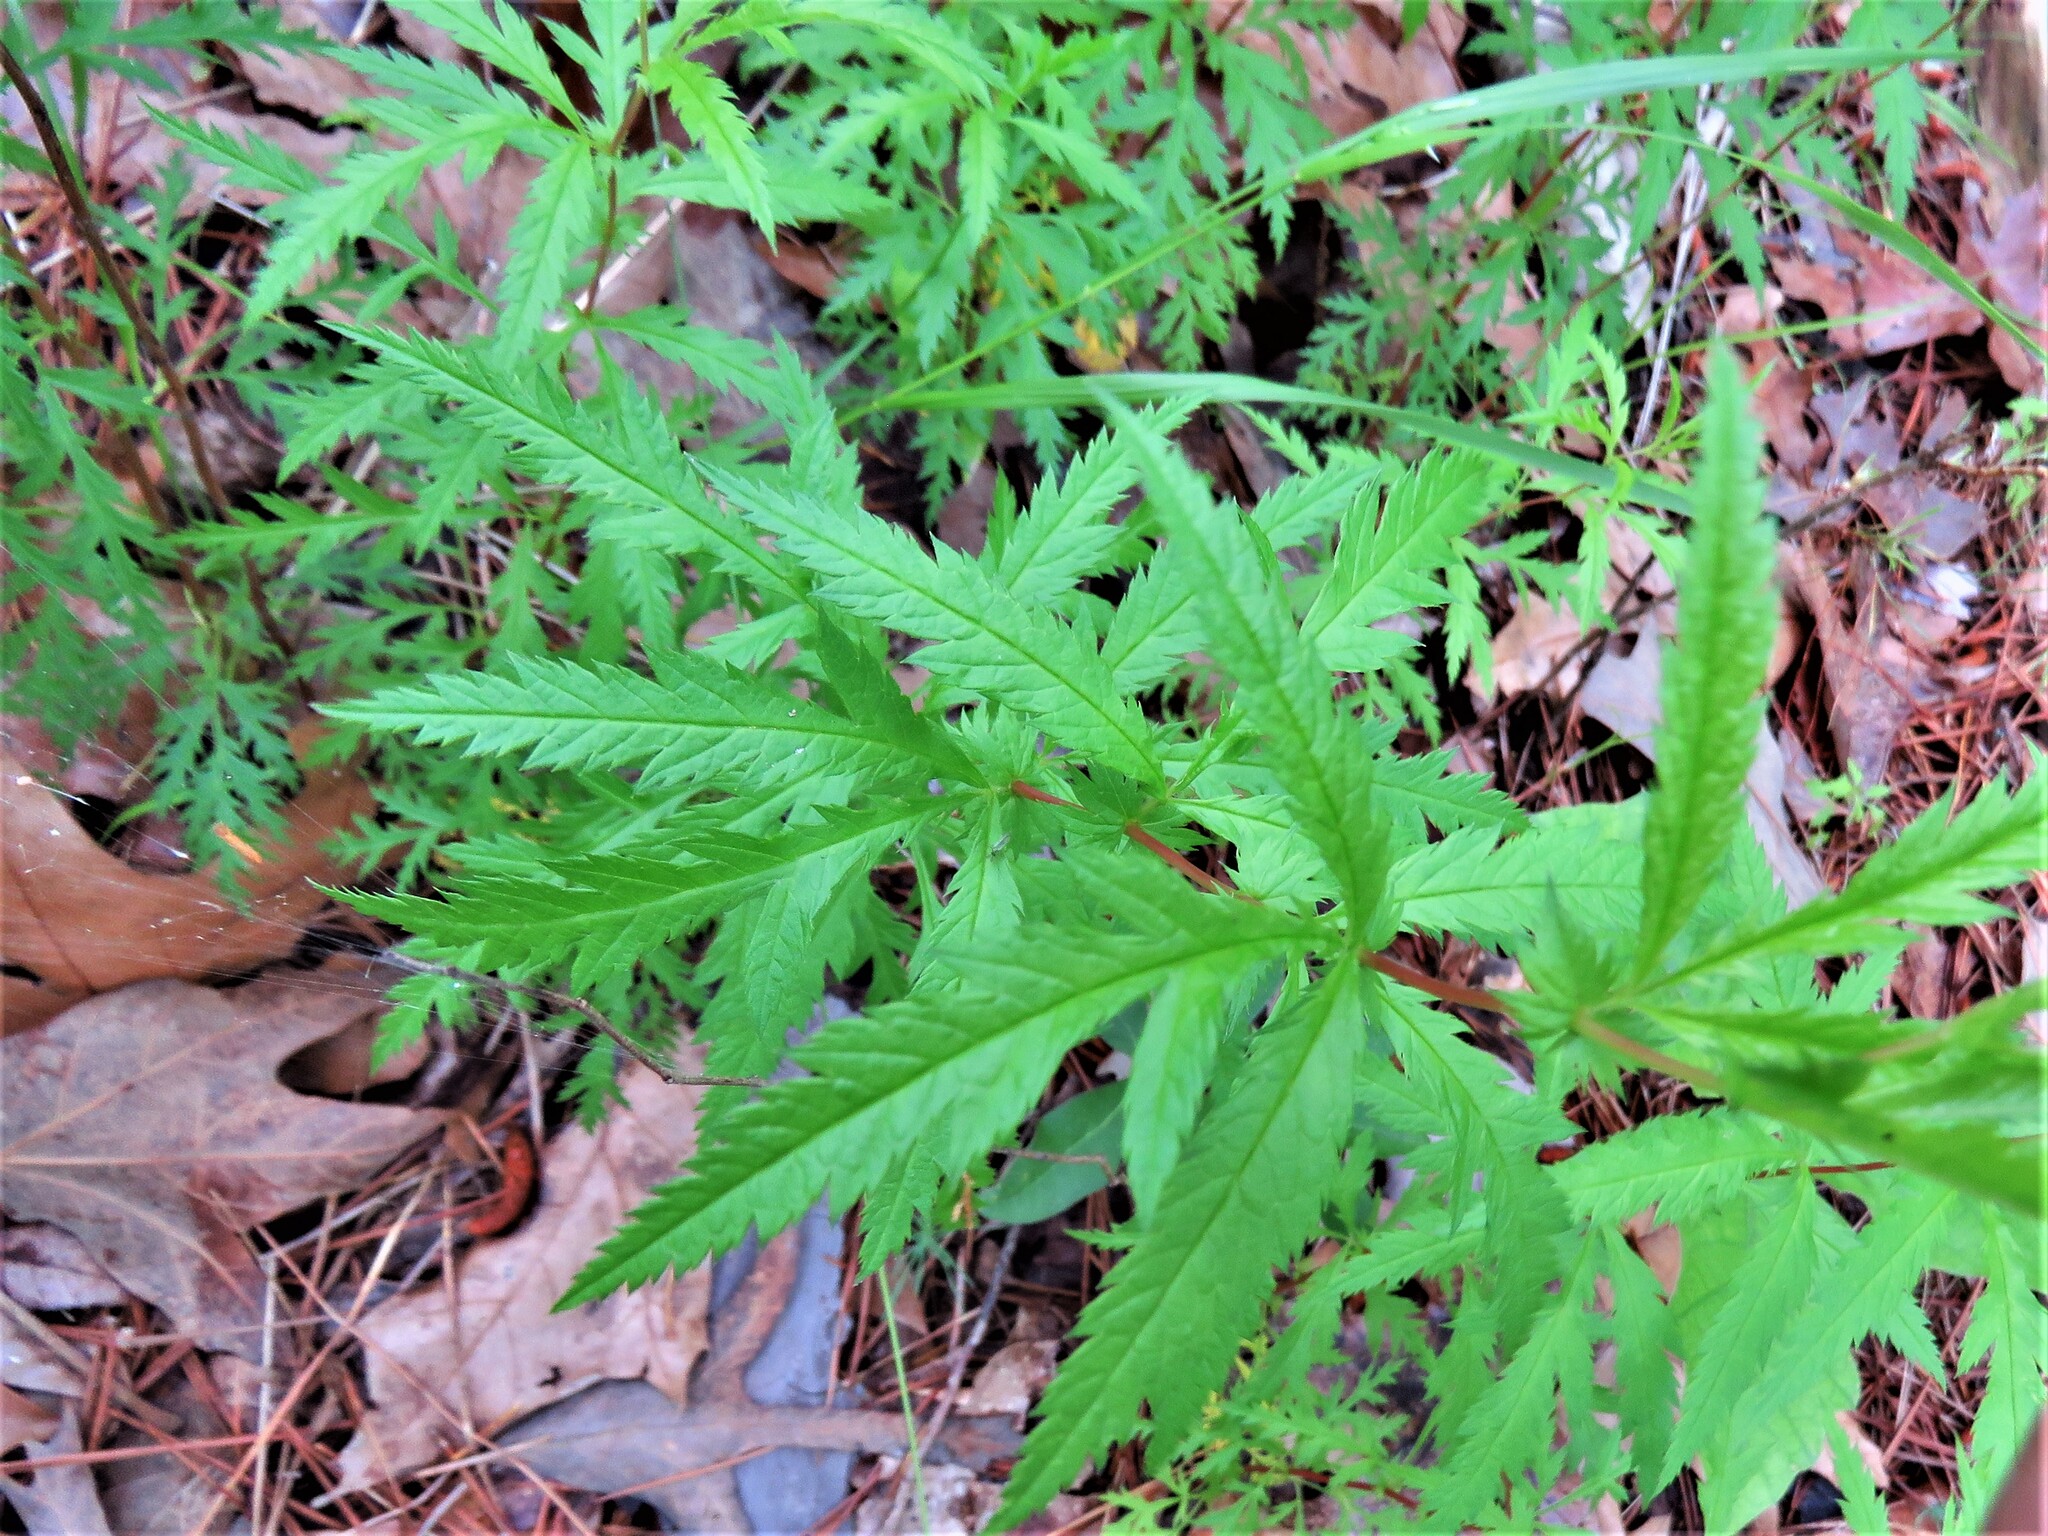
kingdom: Plantae
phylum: Tracheophyta
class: Magnoliopsida
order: Rosales
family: Rosaceae
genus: Gillenia
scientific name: Gillenia stipulata
